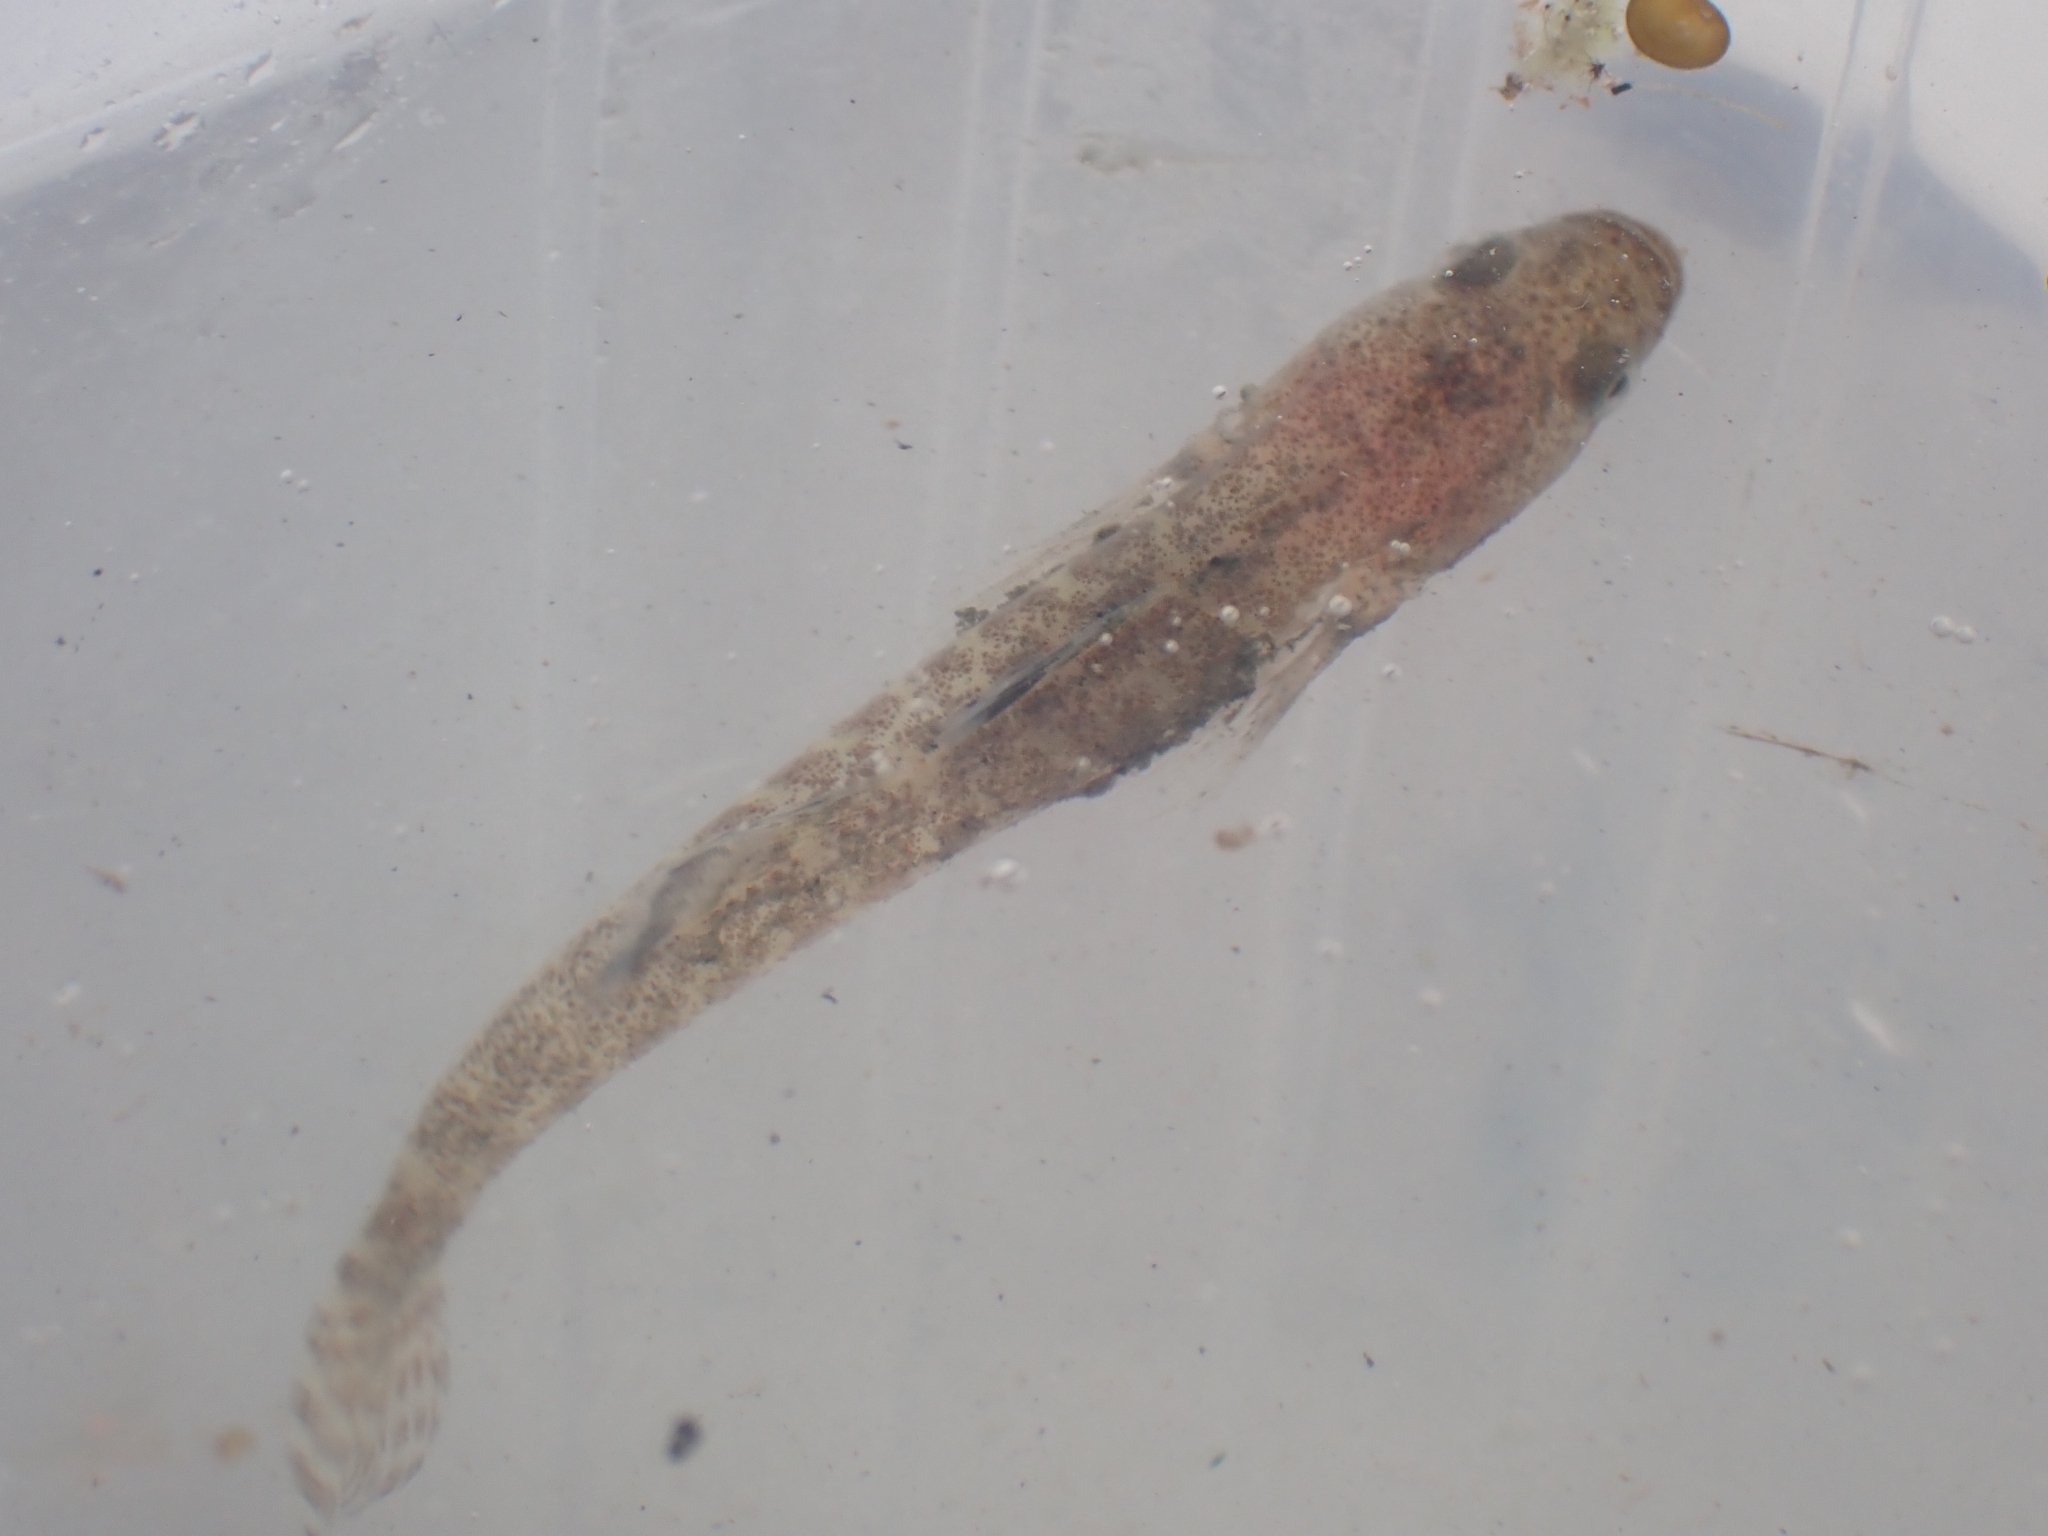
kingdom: Animalia
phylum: Chordata
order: Perciformes
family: Thalasseleotrididae
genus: Grahamichthys
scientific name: Grahamichthys radiata
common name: Graham's gudgeon
